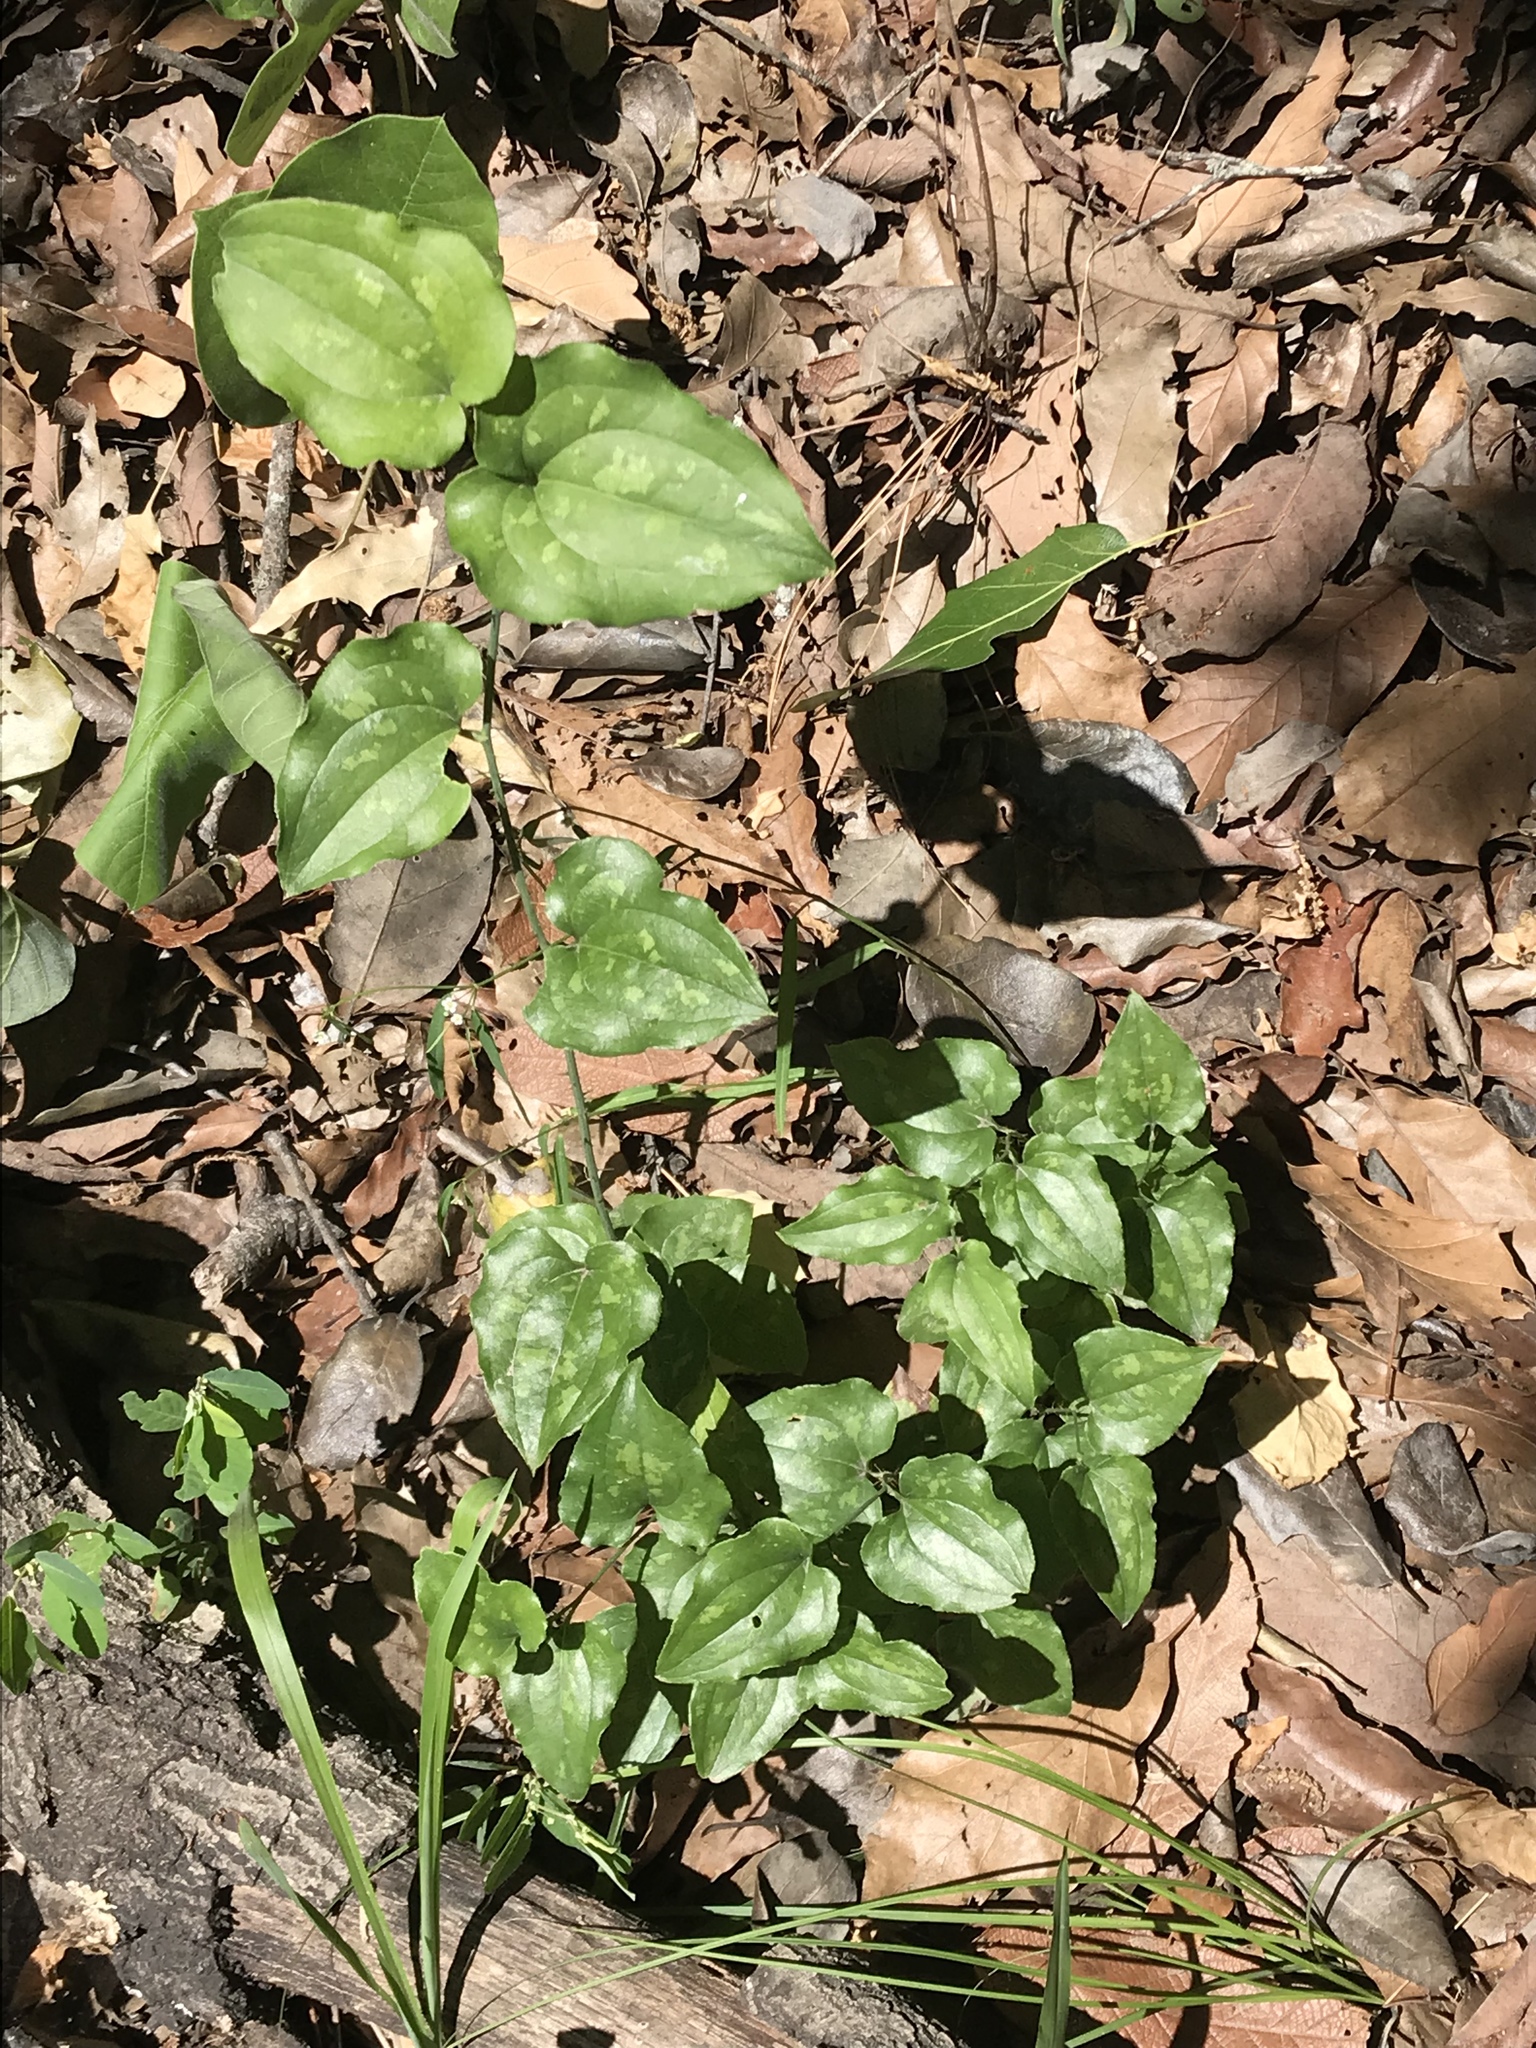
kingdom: Plantae
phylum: Tracheophyta
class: Liliopsida
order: Liliales
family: Smilacaceae
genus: Smilax
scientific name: Smilax bona-nox
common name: Catbrier
